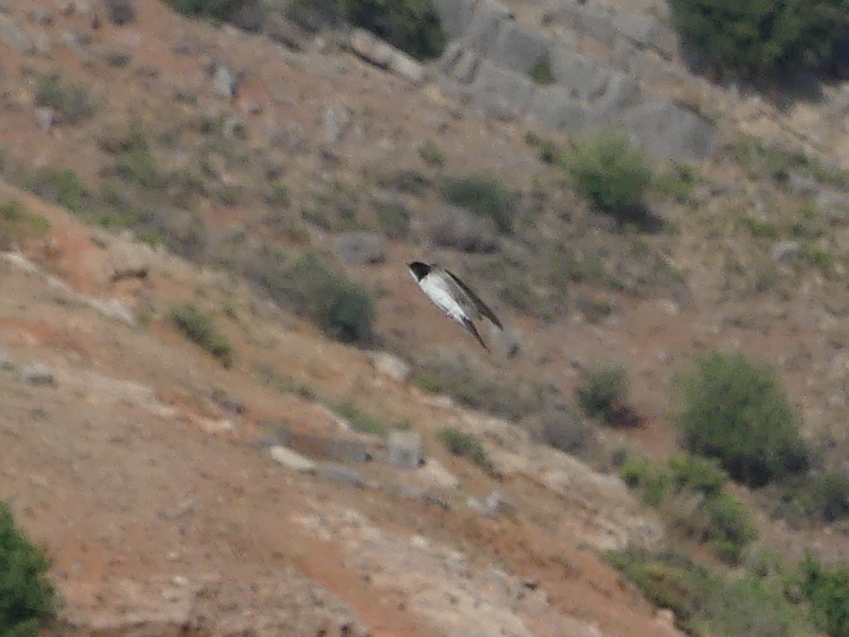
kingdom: Animalia
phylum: Chordata
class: Aves
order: Passeriformes
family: Hirundinidae
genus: Delichon
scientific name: Delichon urbicum
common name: Common house martin
